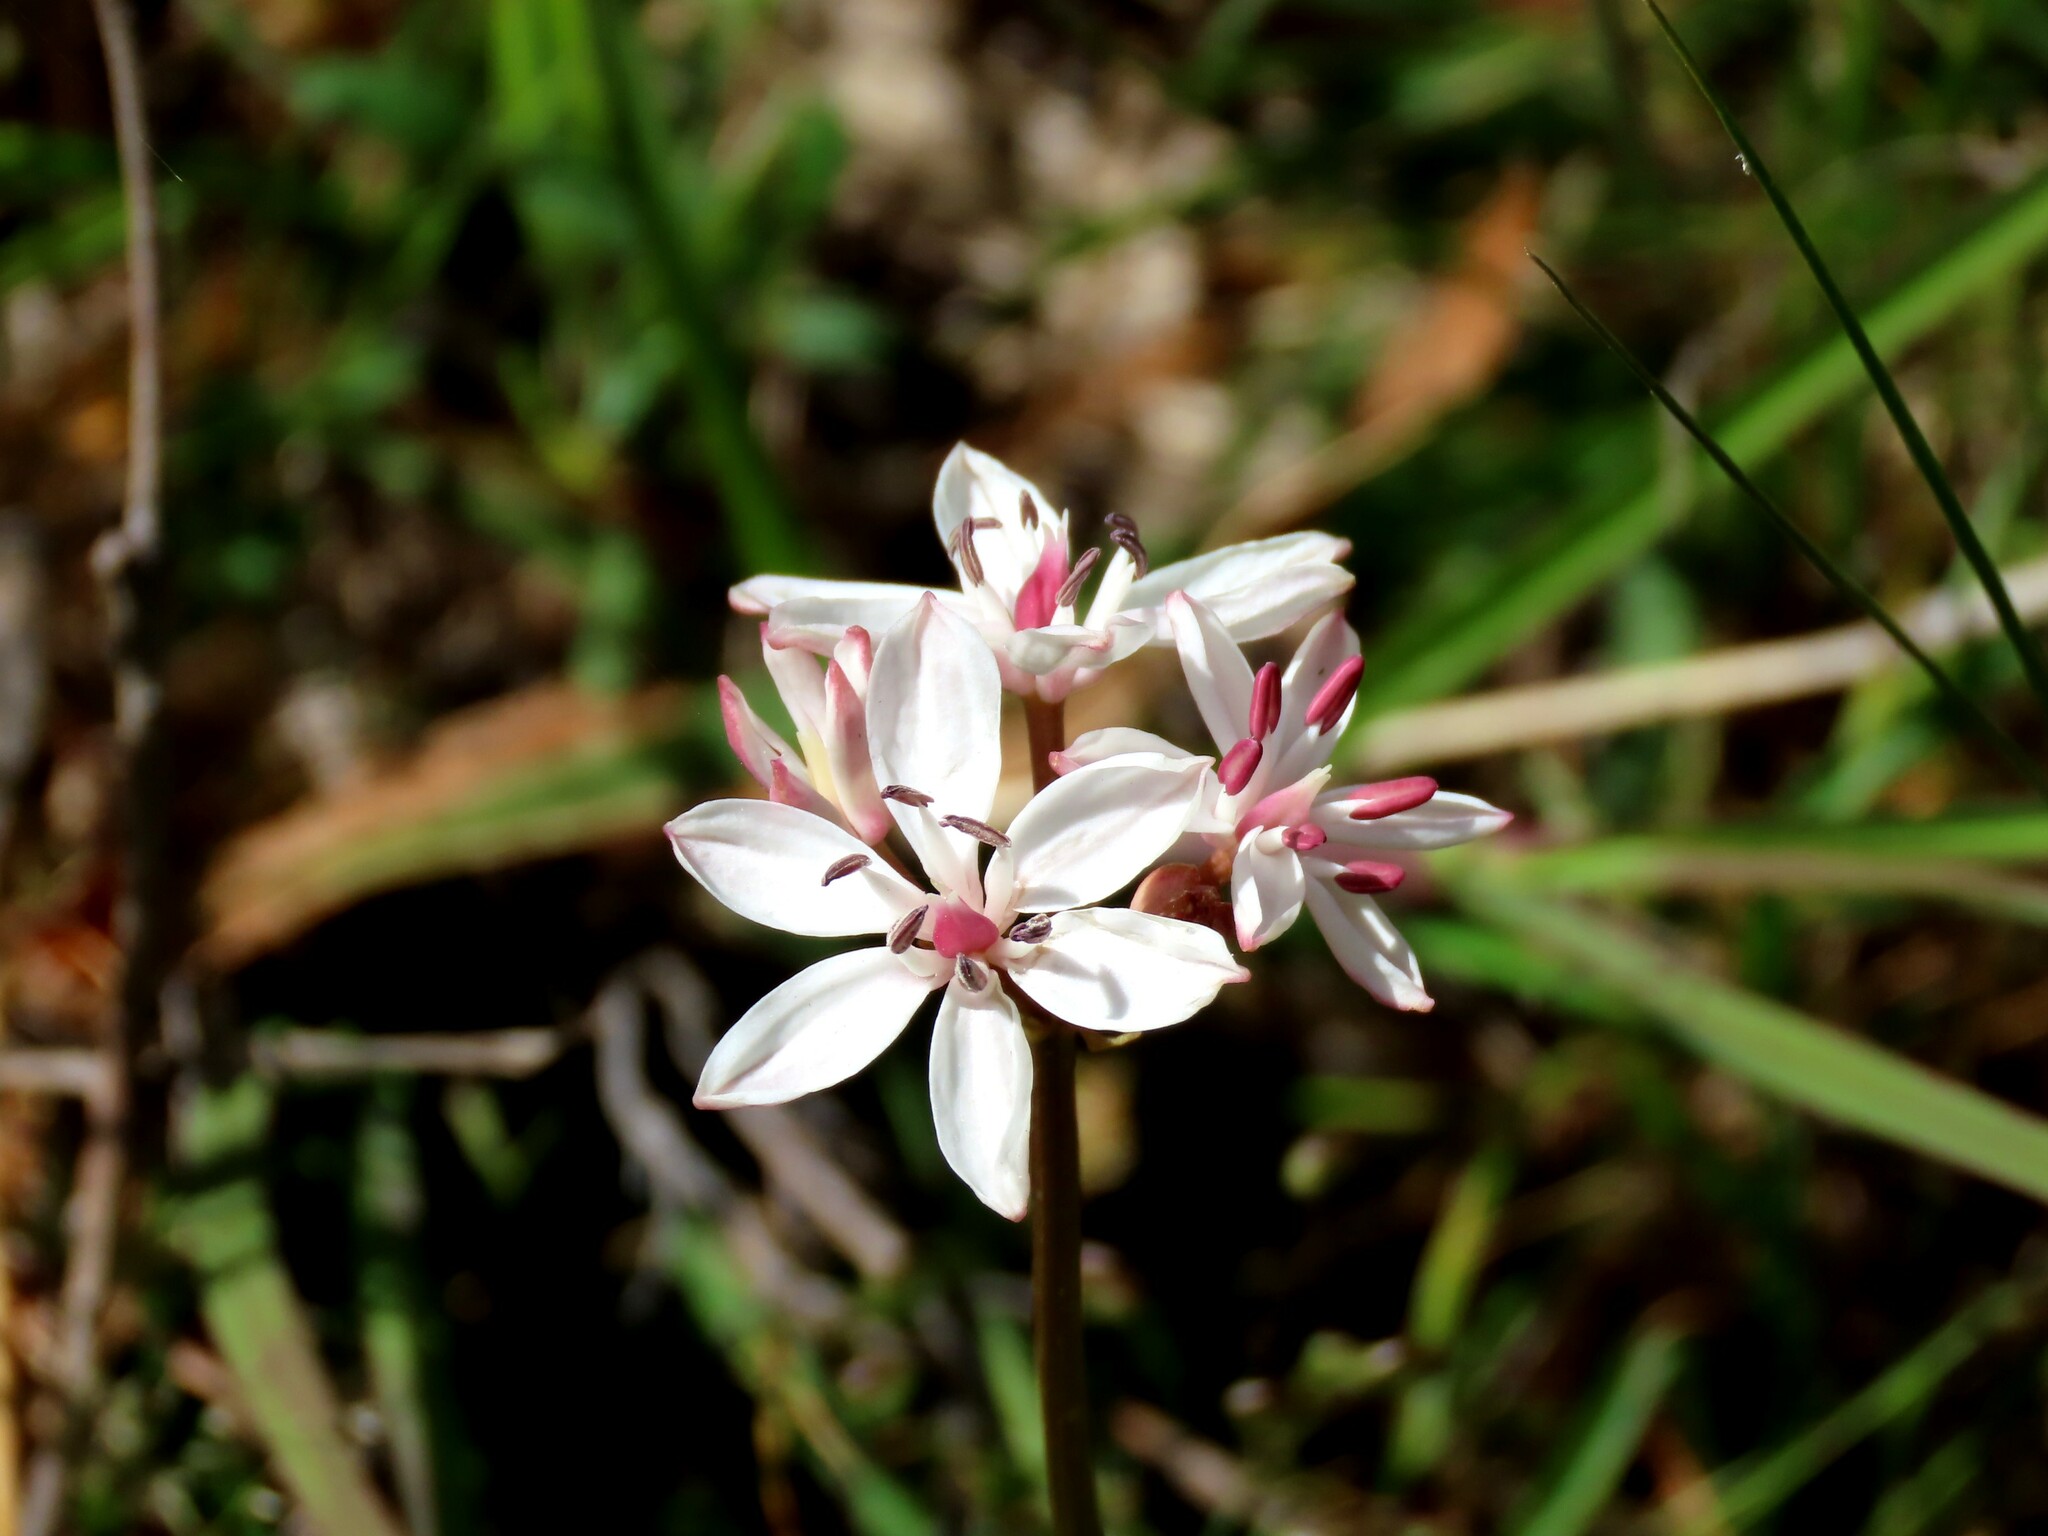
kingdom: Plantae
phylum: Tracheophyta
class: Liliopsida
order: Liliales
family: Colchicaceae
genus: Burchardia
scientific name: Burchardia umbellata
